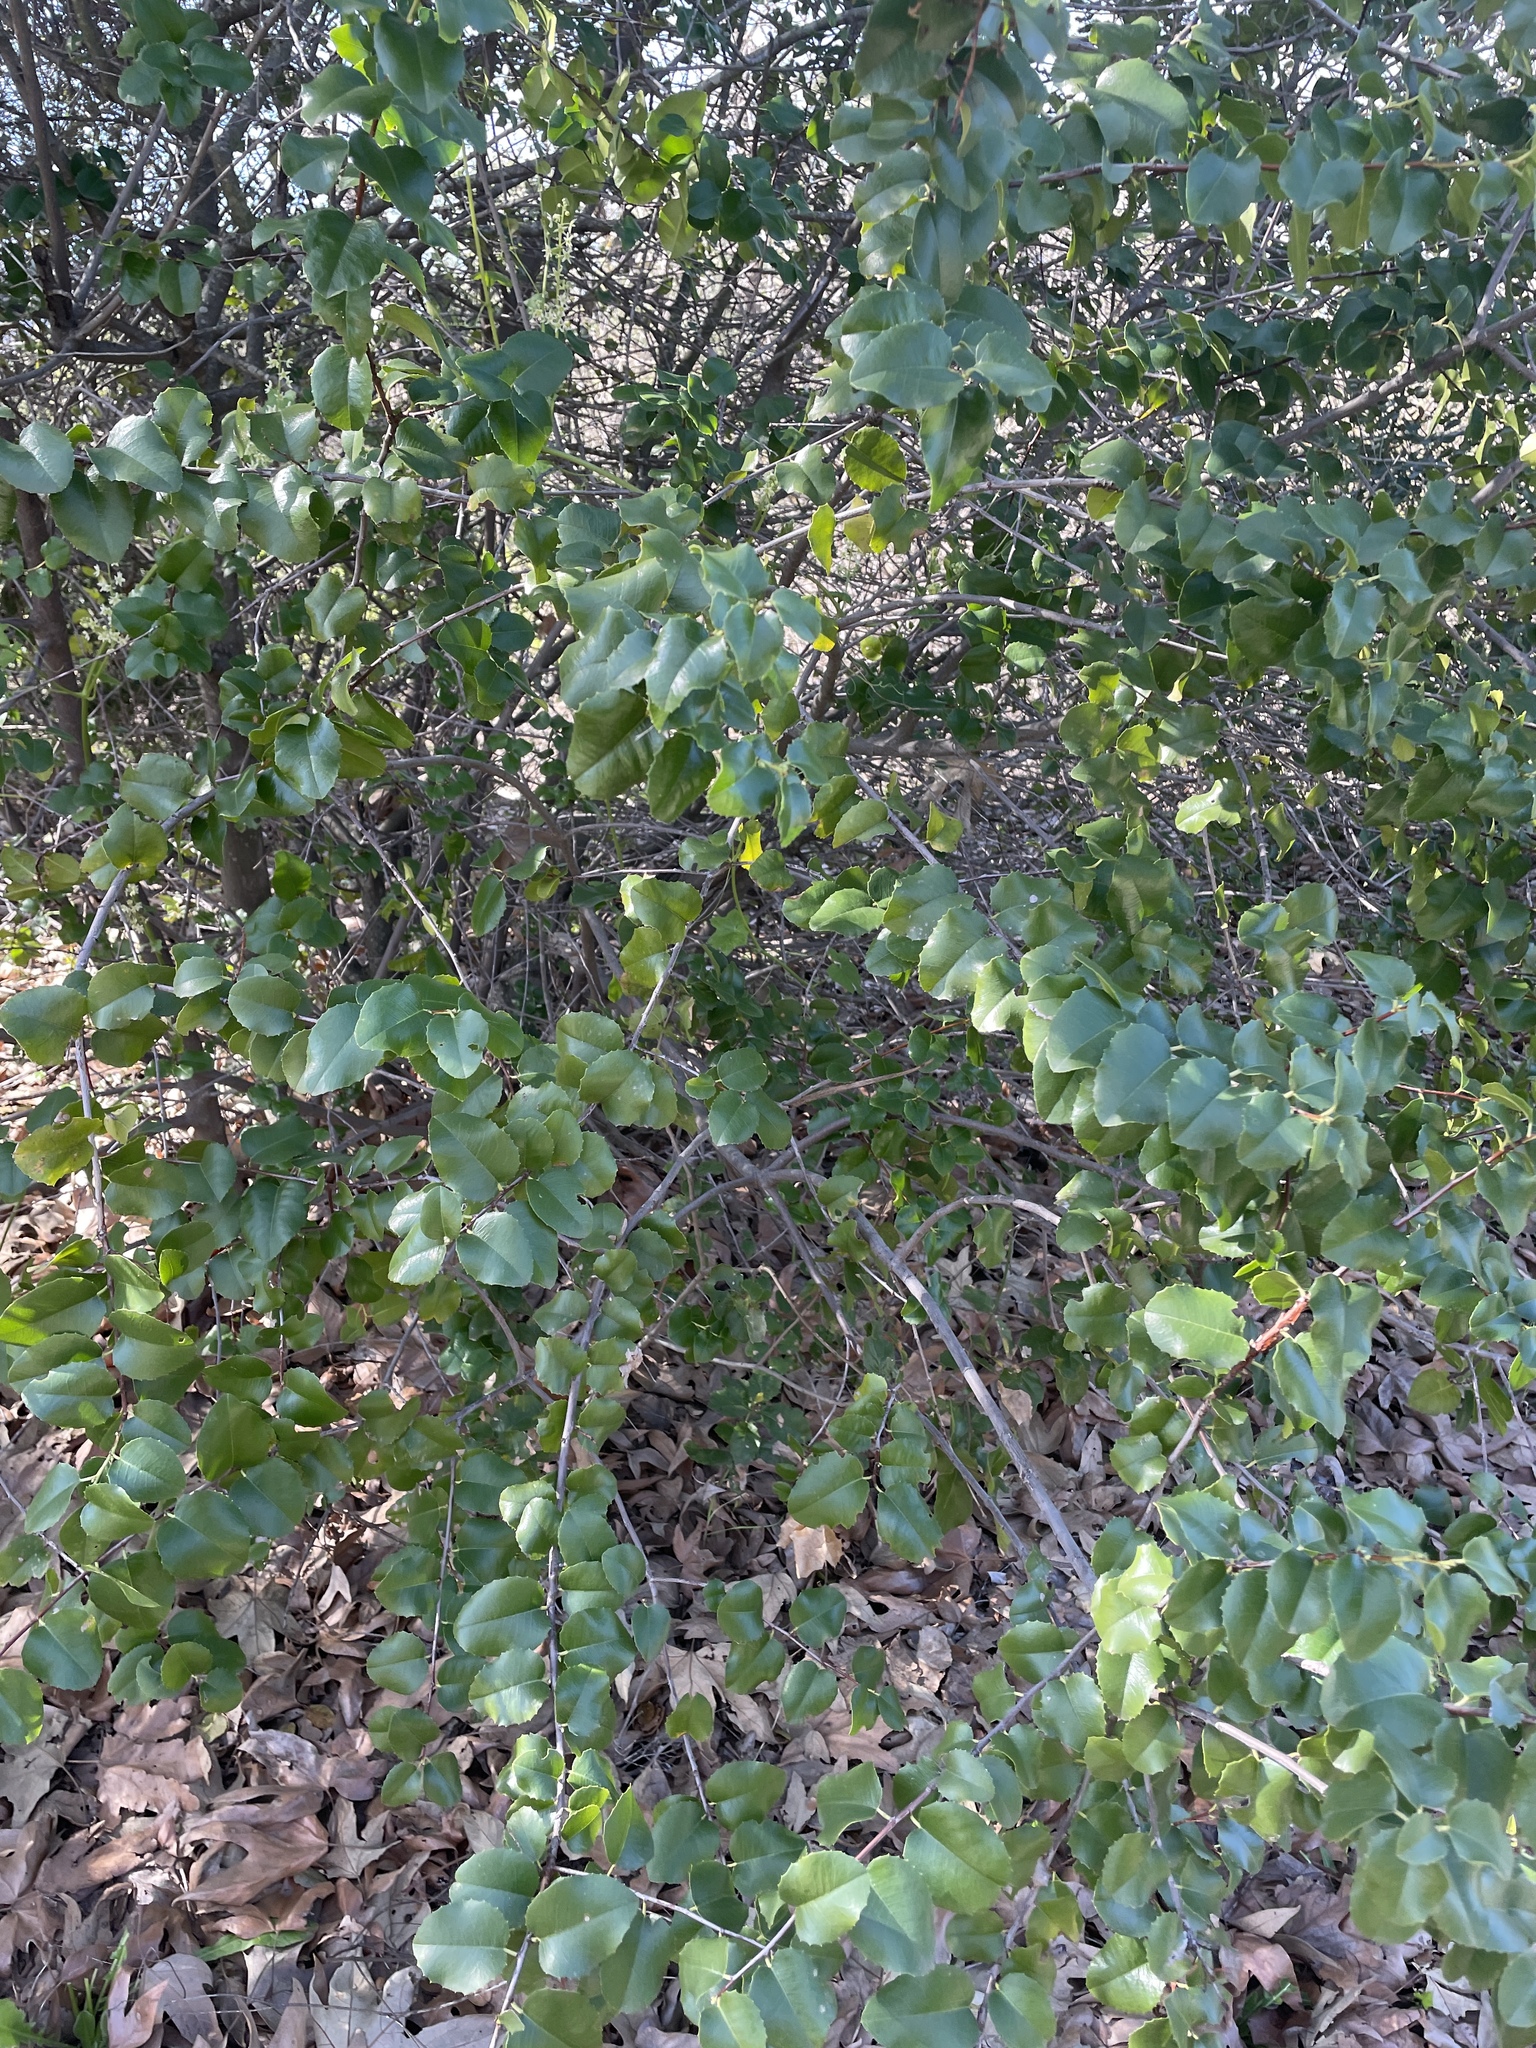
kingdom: Plantae
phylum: Tracheophyta
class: Magnoliopsida
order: Rosales
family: Rosaceae
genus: Prunus
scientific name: Prunus ilicifolia
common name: Hollyleaf cherry
